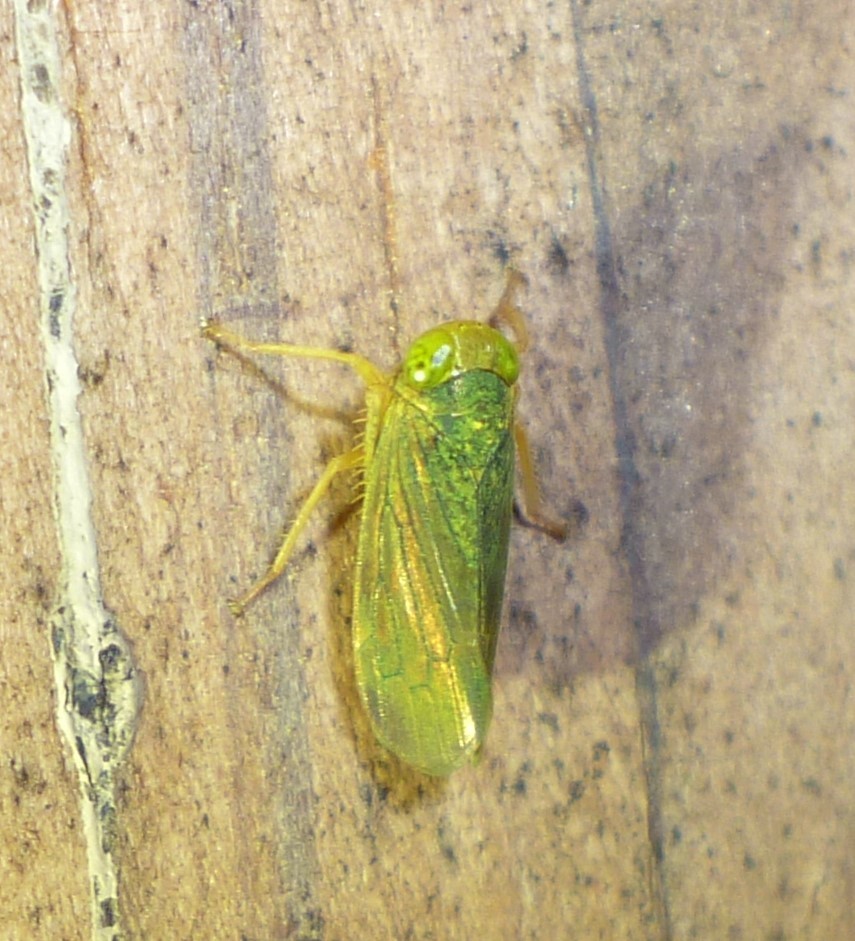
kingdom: Animalia
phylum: Arthropoda
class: Insecta
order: Hemiptera
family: Cicadellidae
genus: Jikradia
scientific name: Jikradia olitoria
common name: Coppery leafhopper
